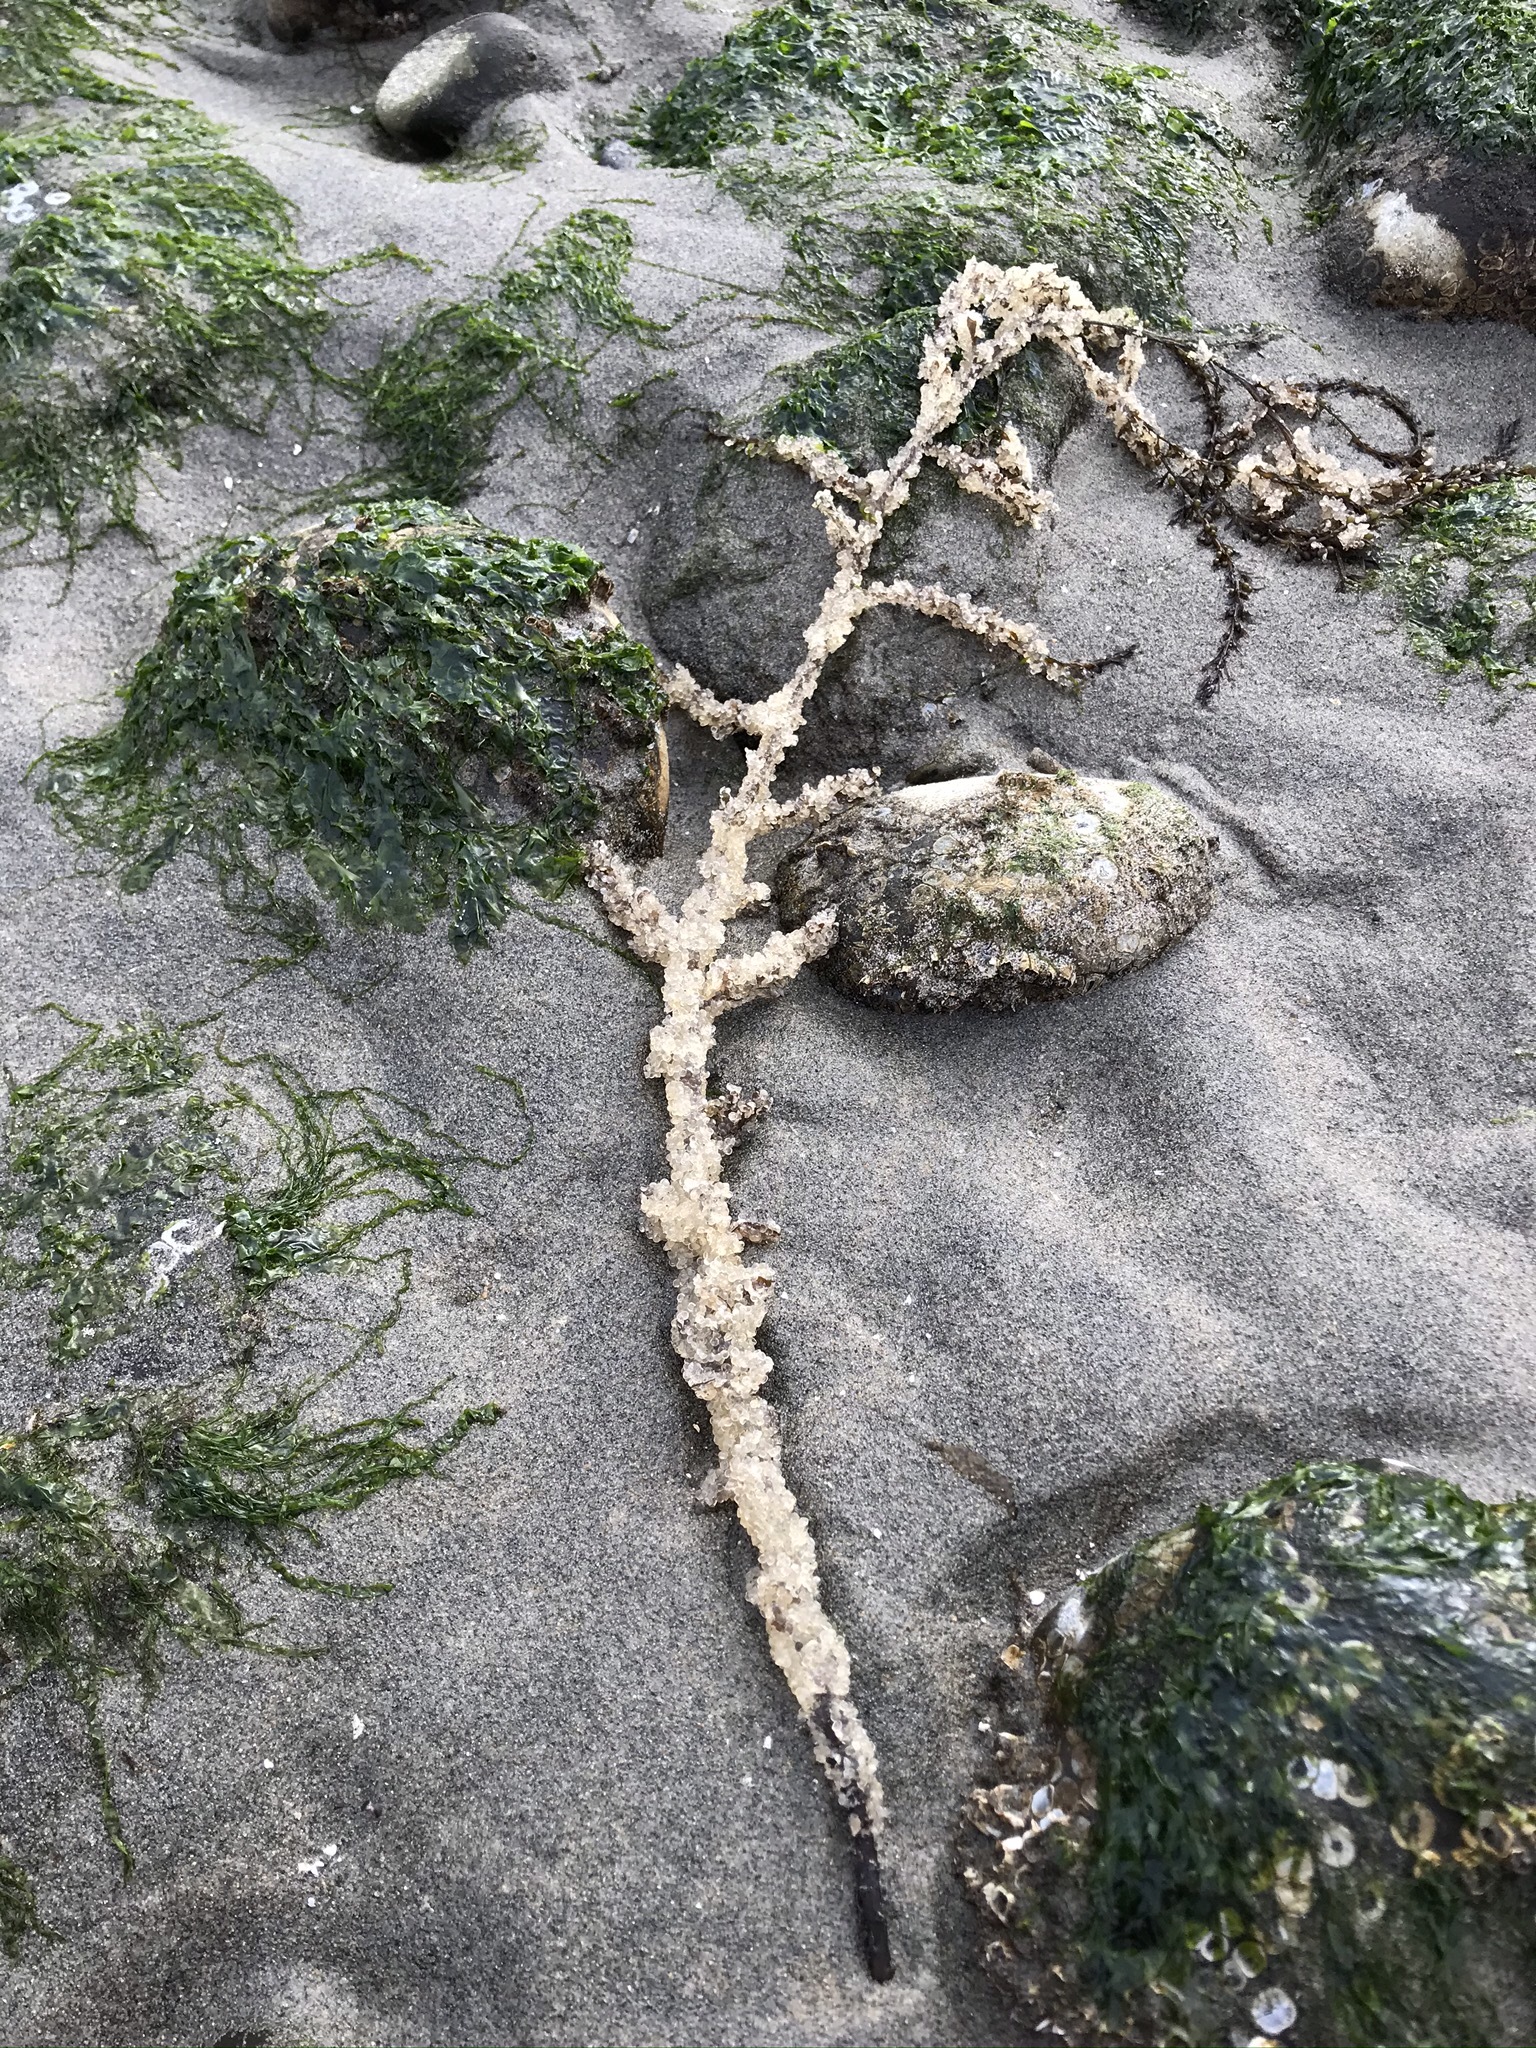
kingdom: Animalia
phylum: Chordata
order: Clupeiformes
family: Clupeidae
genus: Clupea
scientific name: Clupea pallasii
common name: Pacific herring
